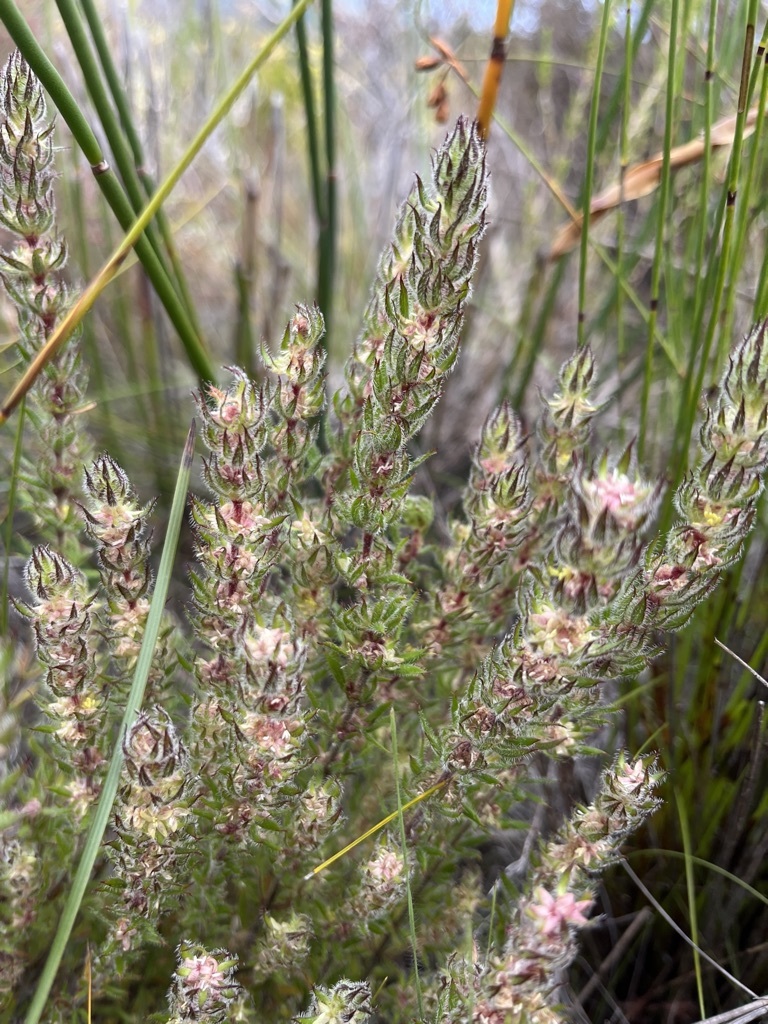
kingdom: Plantae
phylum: Tracheophyta
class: Magnoliopsida
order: Gentianales
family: Rubiaceae
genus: Anthospermum
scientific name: Anthospermum bergianum
